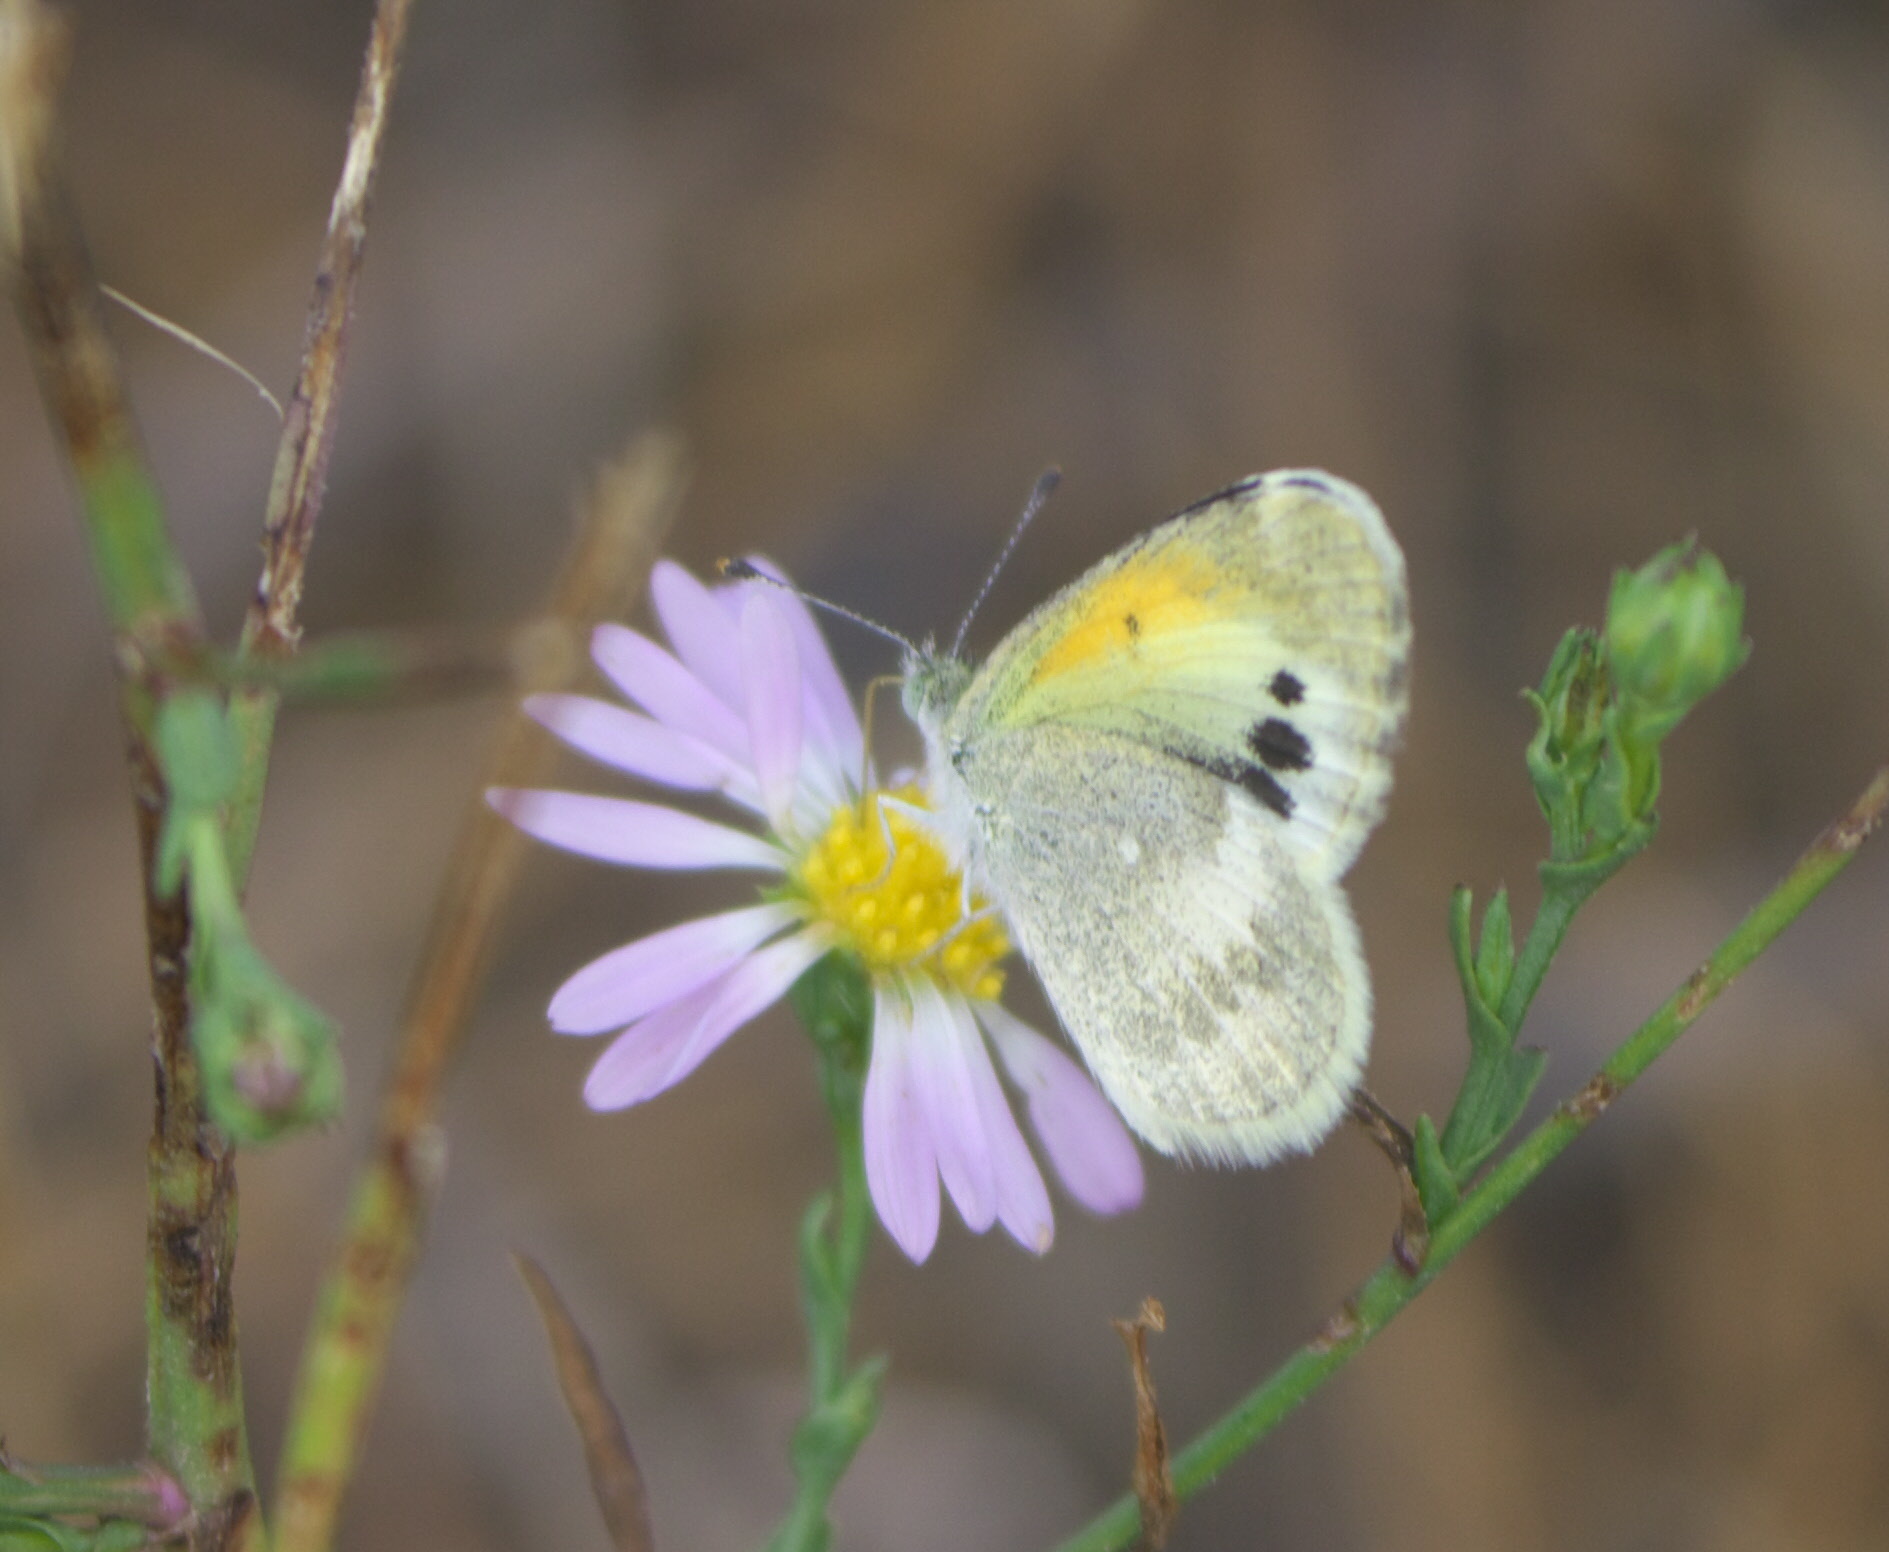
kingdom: Animalia
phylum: Arthropoda
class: Insecta
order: Lepidoptera
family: Pieridae
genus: Nathalis
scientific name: Nathalis iole
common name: Dainty sulphur
